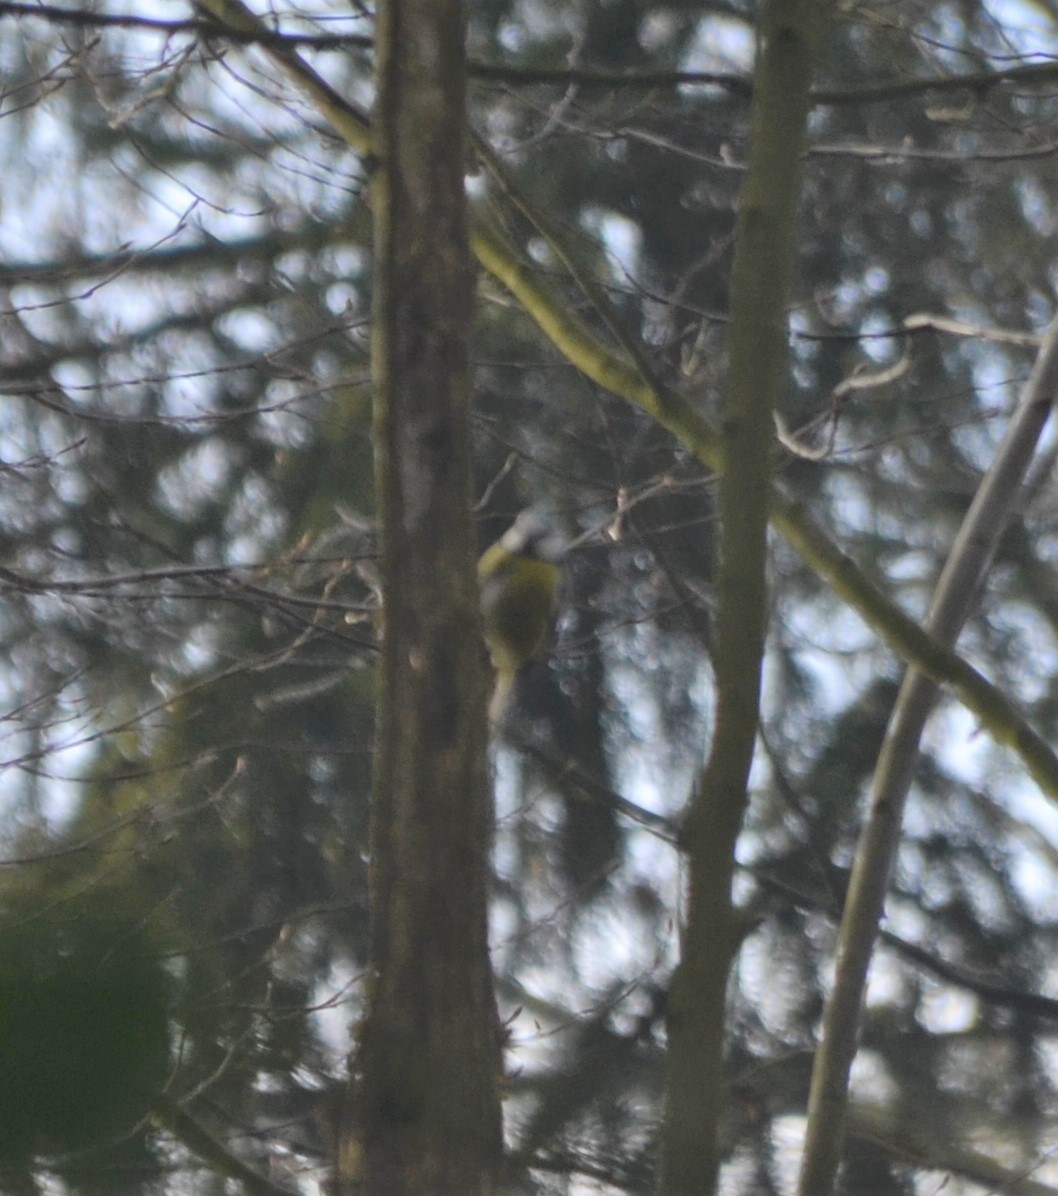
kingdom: Animalia
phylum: Chordata
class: Aves
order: Passeriformes
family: Paridae
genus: Cyanistes
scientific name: Cyanistes caeruleus
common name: Eurasian blue tit
